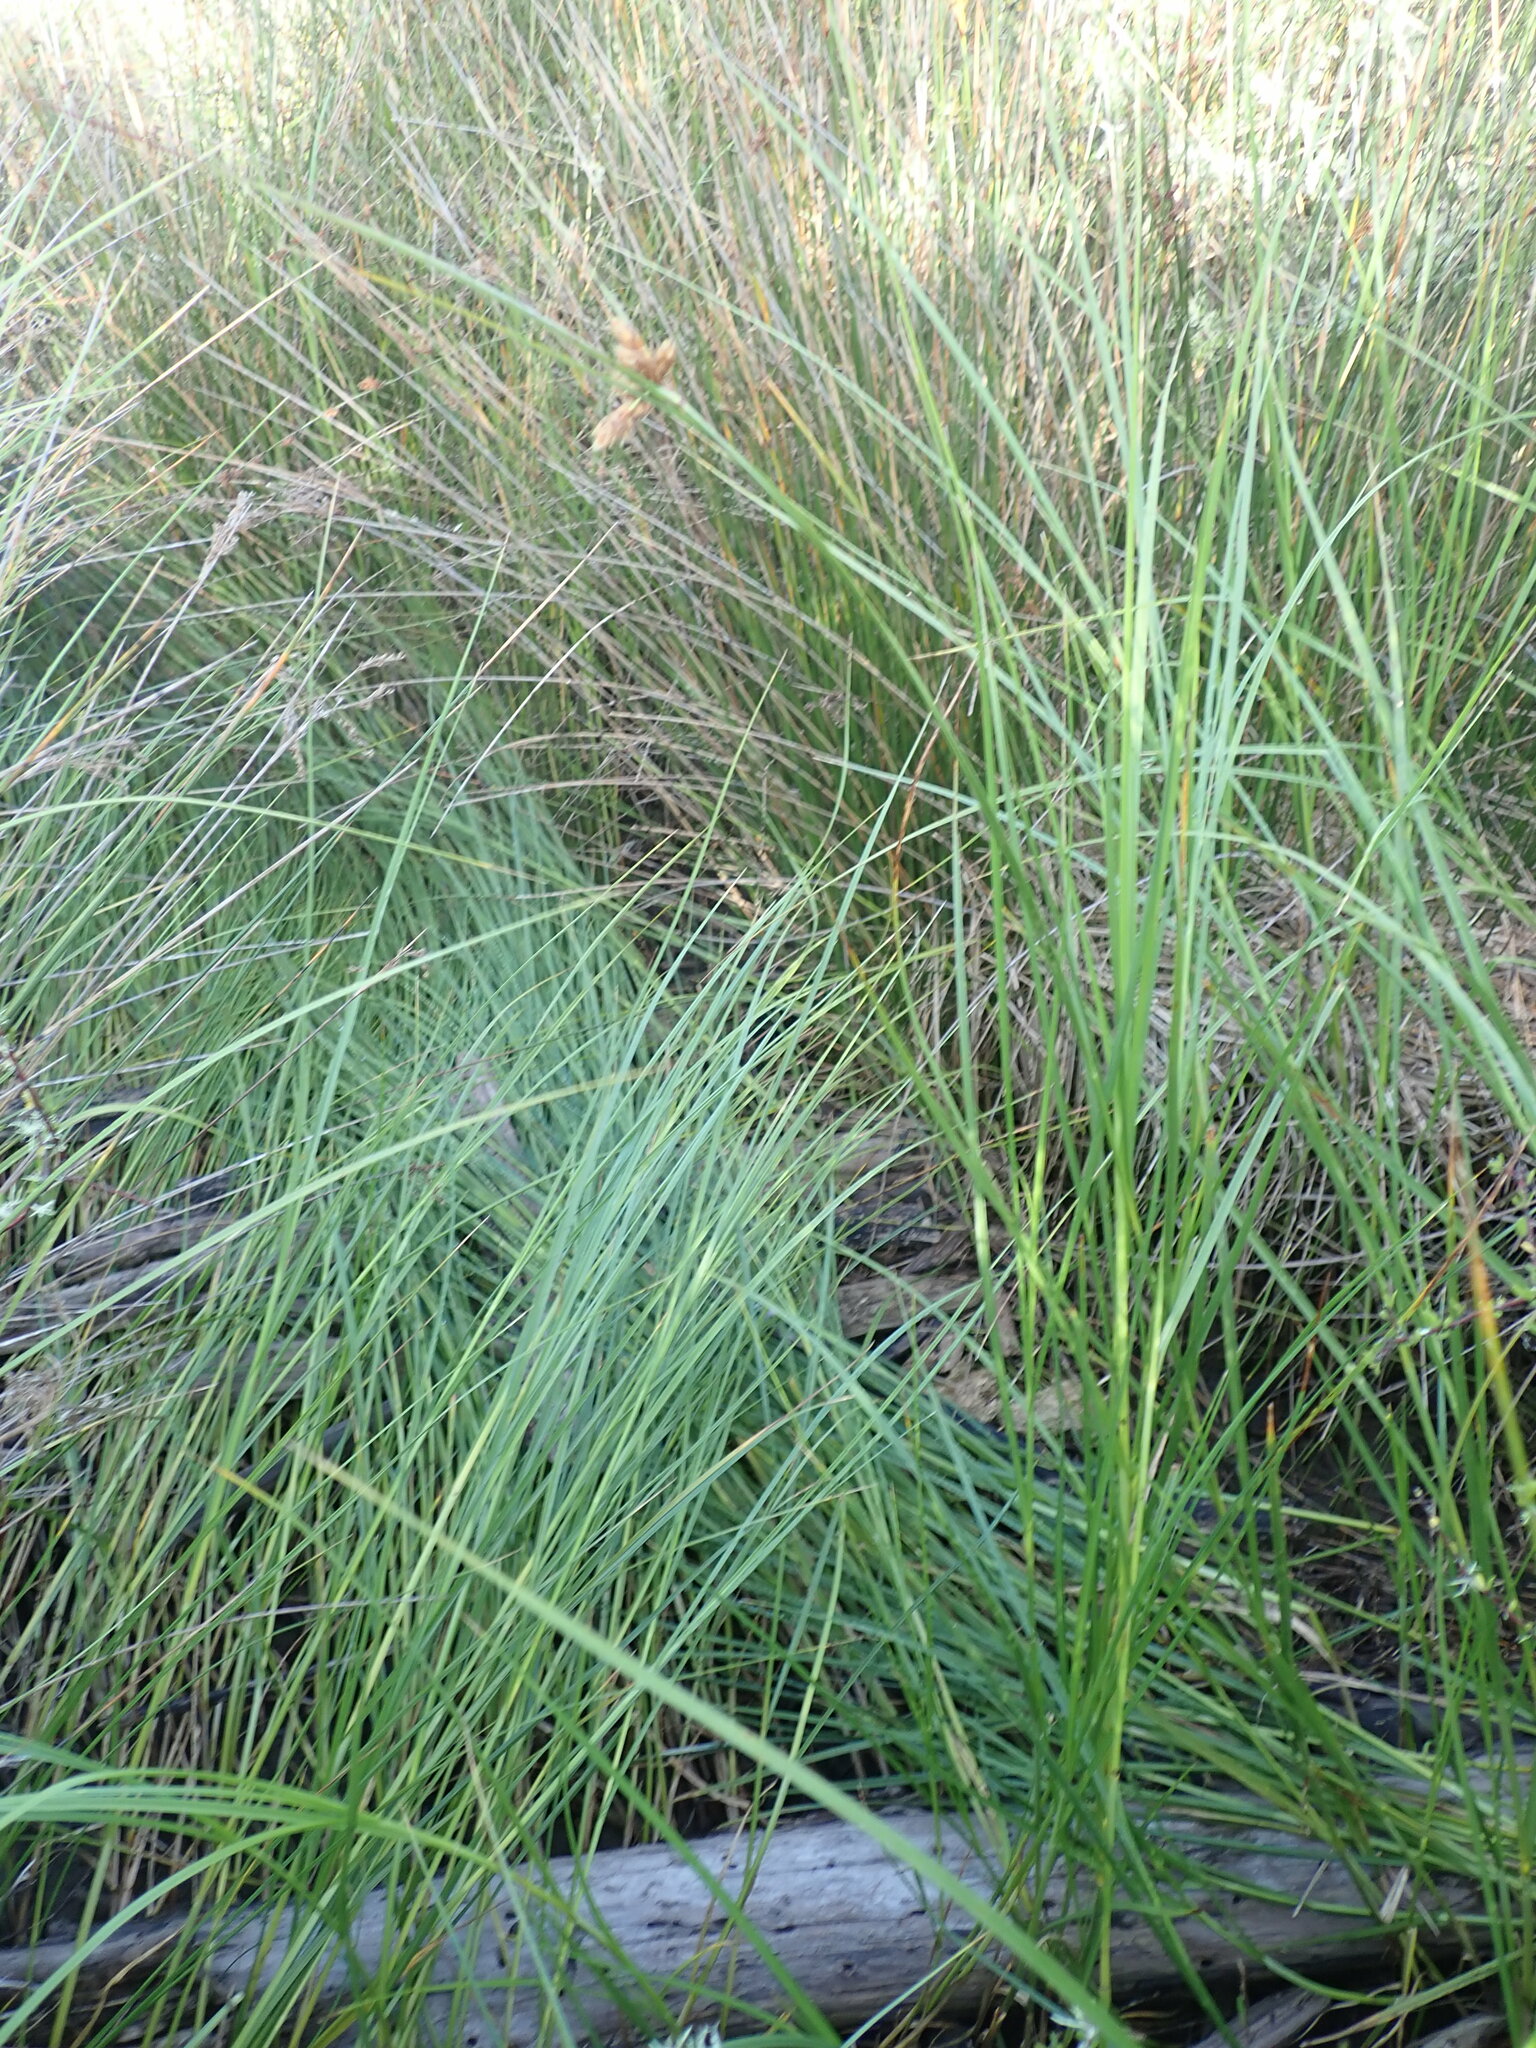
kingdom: Plantae
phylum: Tracheophyta
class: Liliopsida
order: Poales
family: Cyperaceae
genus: Bolboschoenus
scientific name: Bolboschoenus caldwellii
